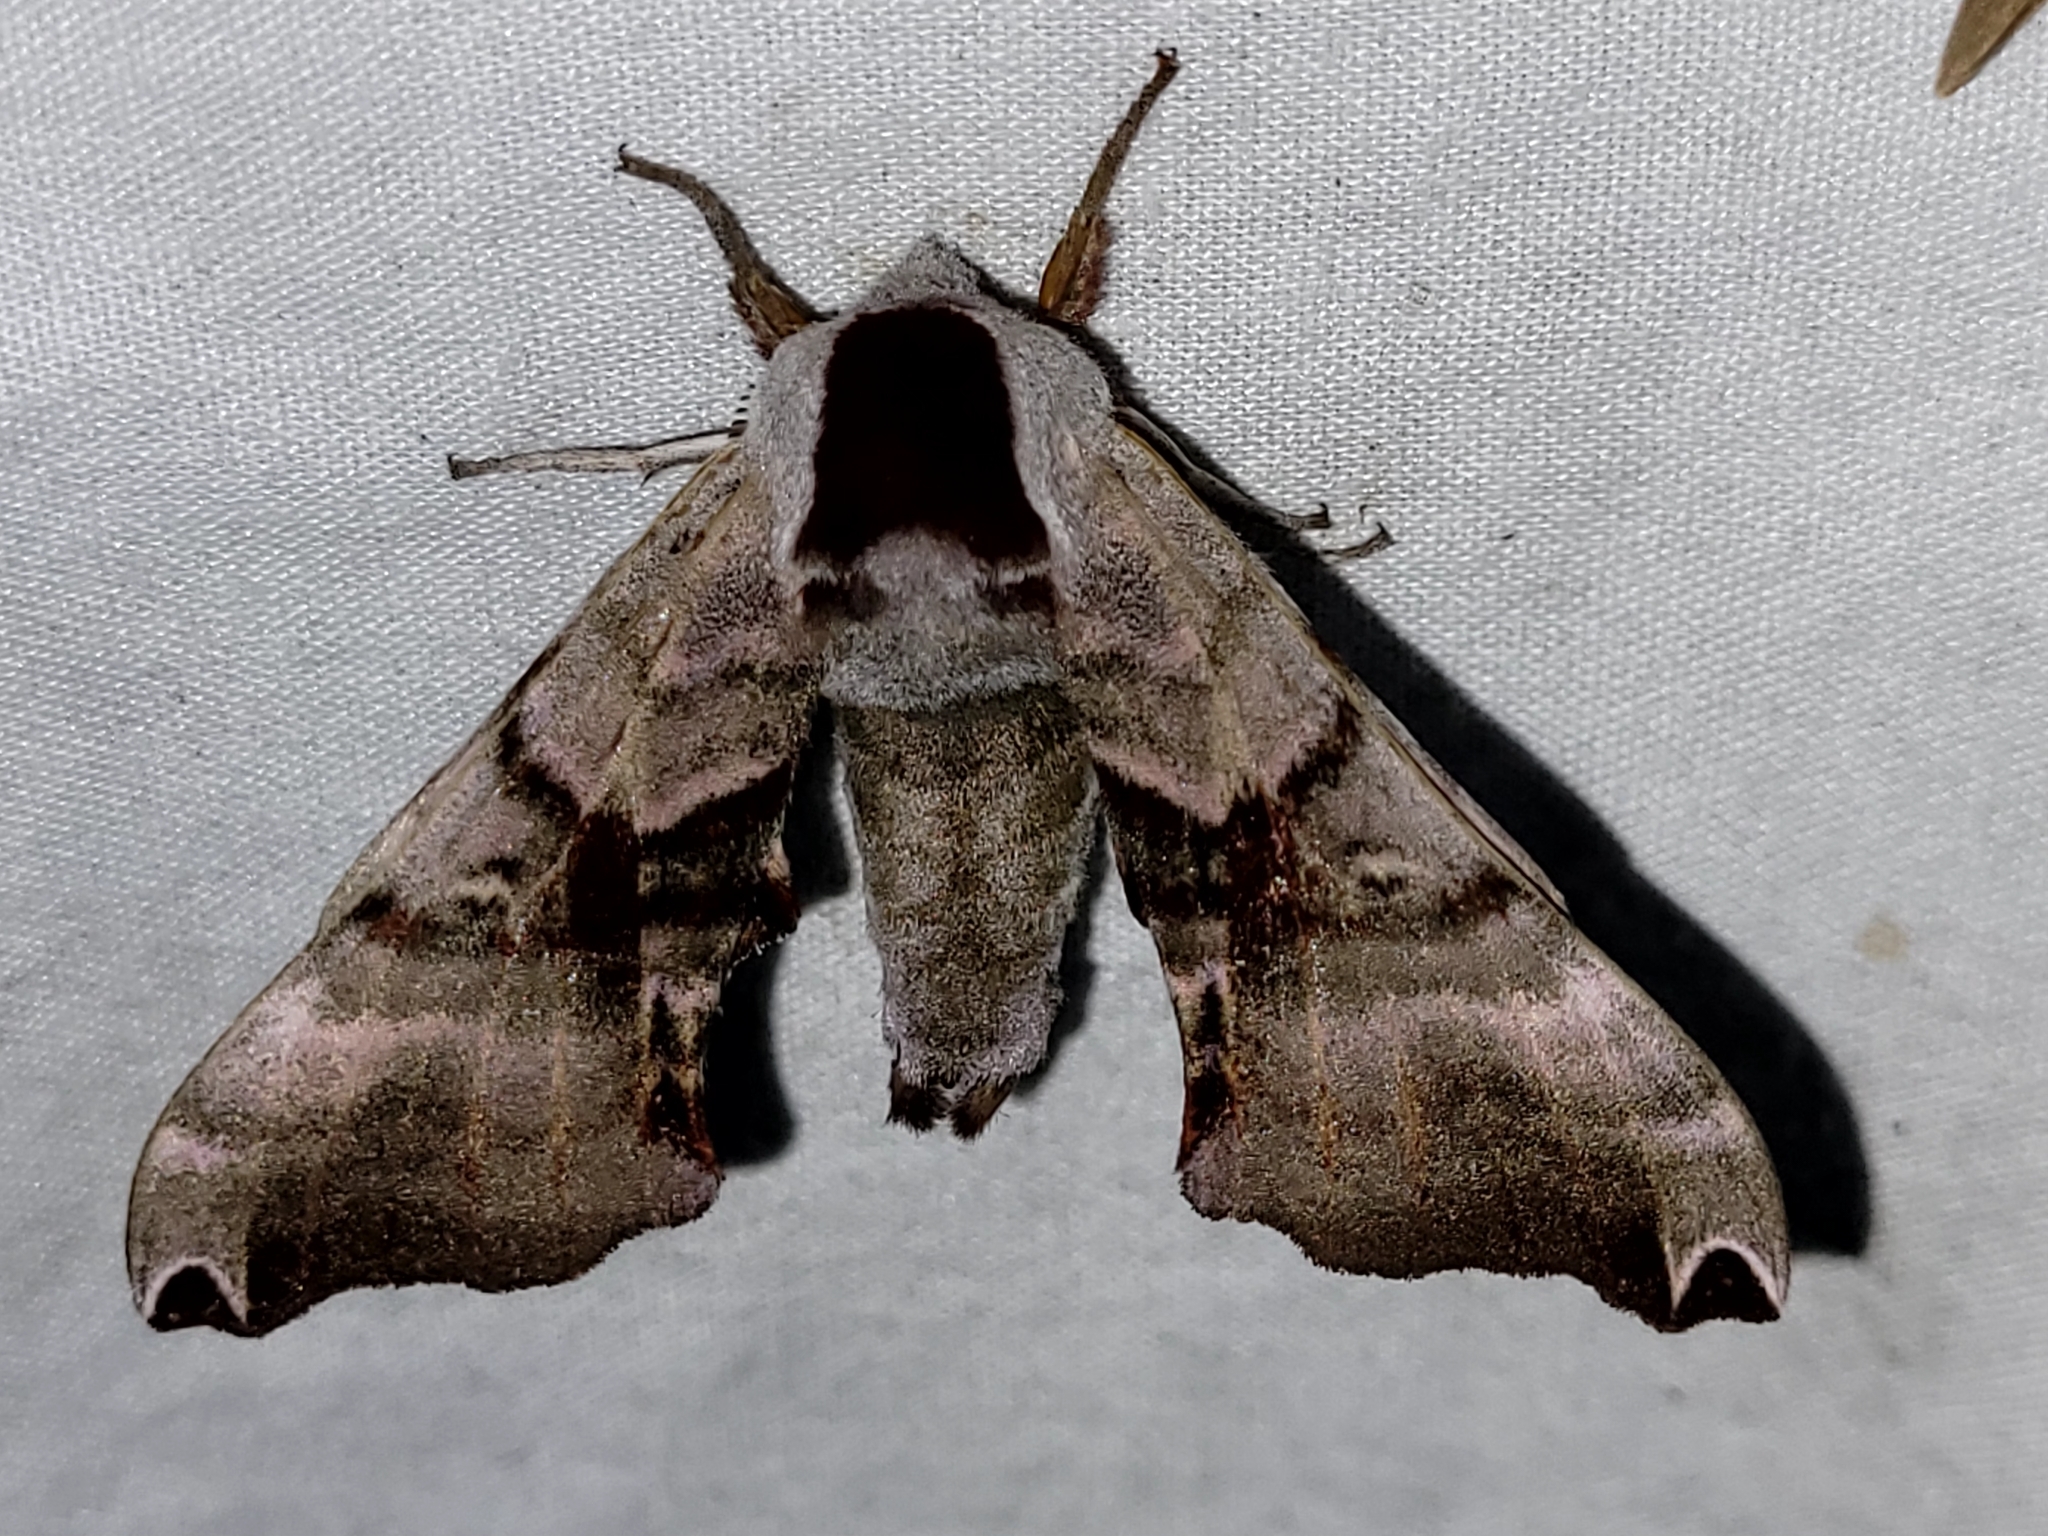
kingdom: Animalia
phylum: Arthropoda
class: Insecta
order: Lepidoptera
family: Sphingidae
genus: Smerinthus
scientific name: Smerinthus jamaicensis
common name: Twin spotted sphinx
